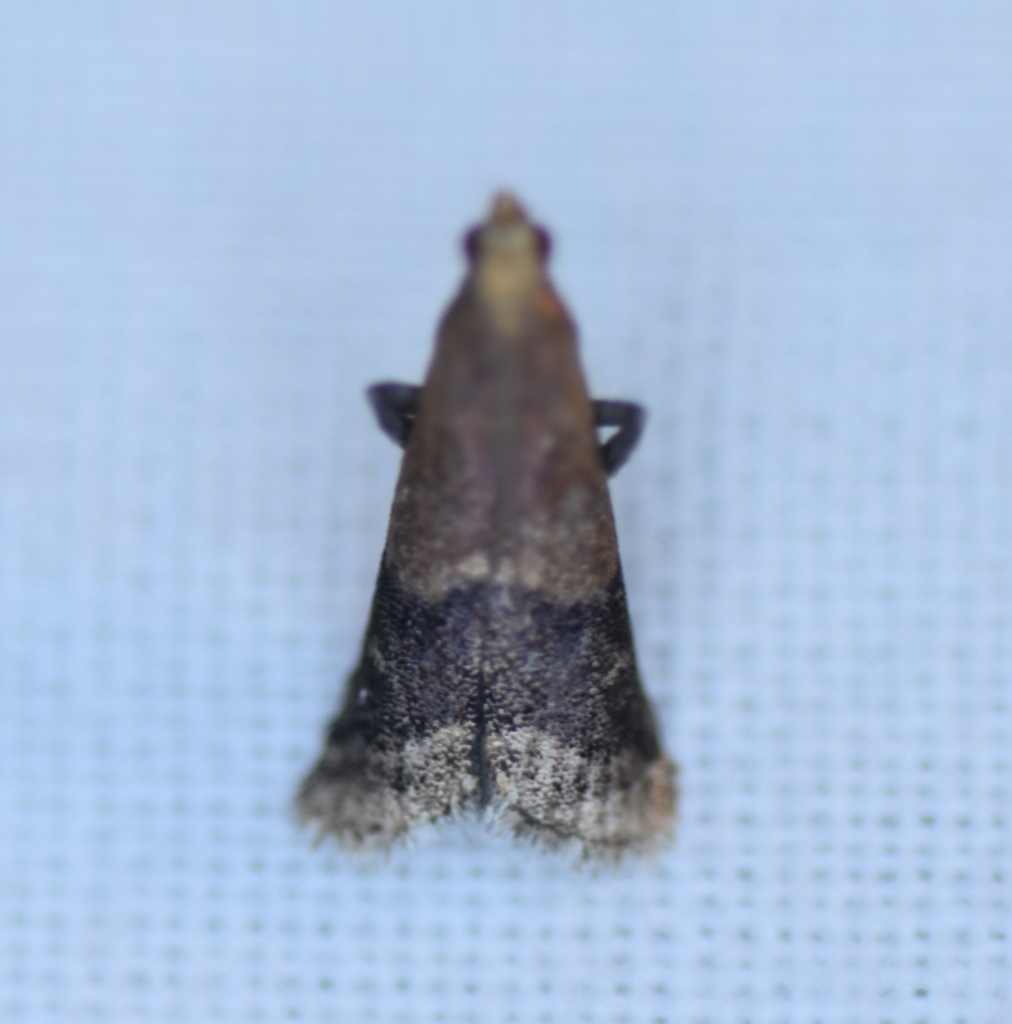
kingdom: Animalia
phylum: Arthropoda
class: Insecta
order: Lepidoptera
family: Pyralidae
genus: Eulogia
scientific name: Eulogia ochrifrontella
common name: Broad-banded eulogia moth
